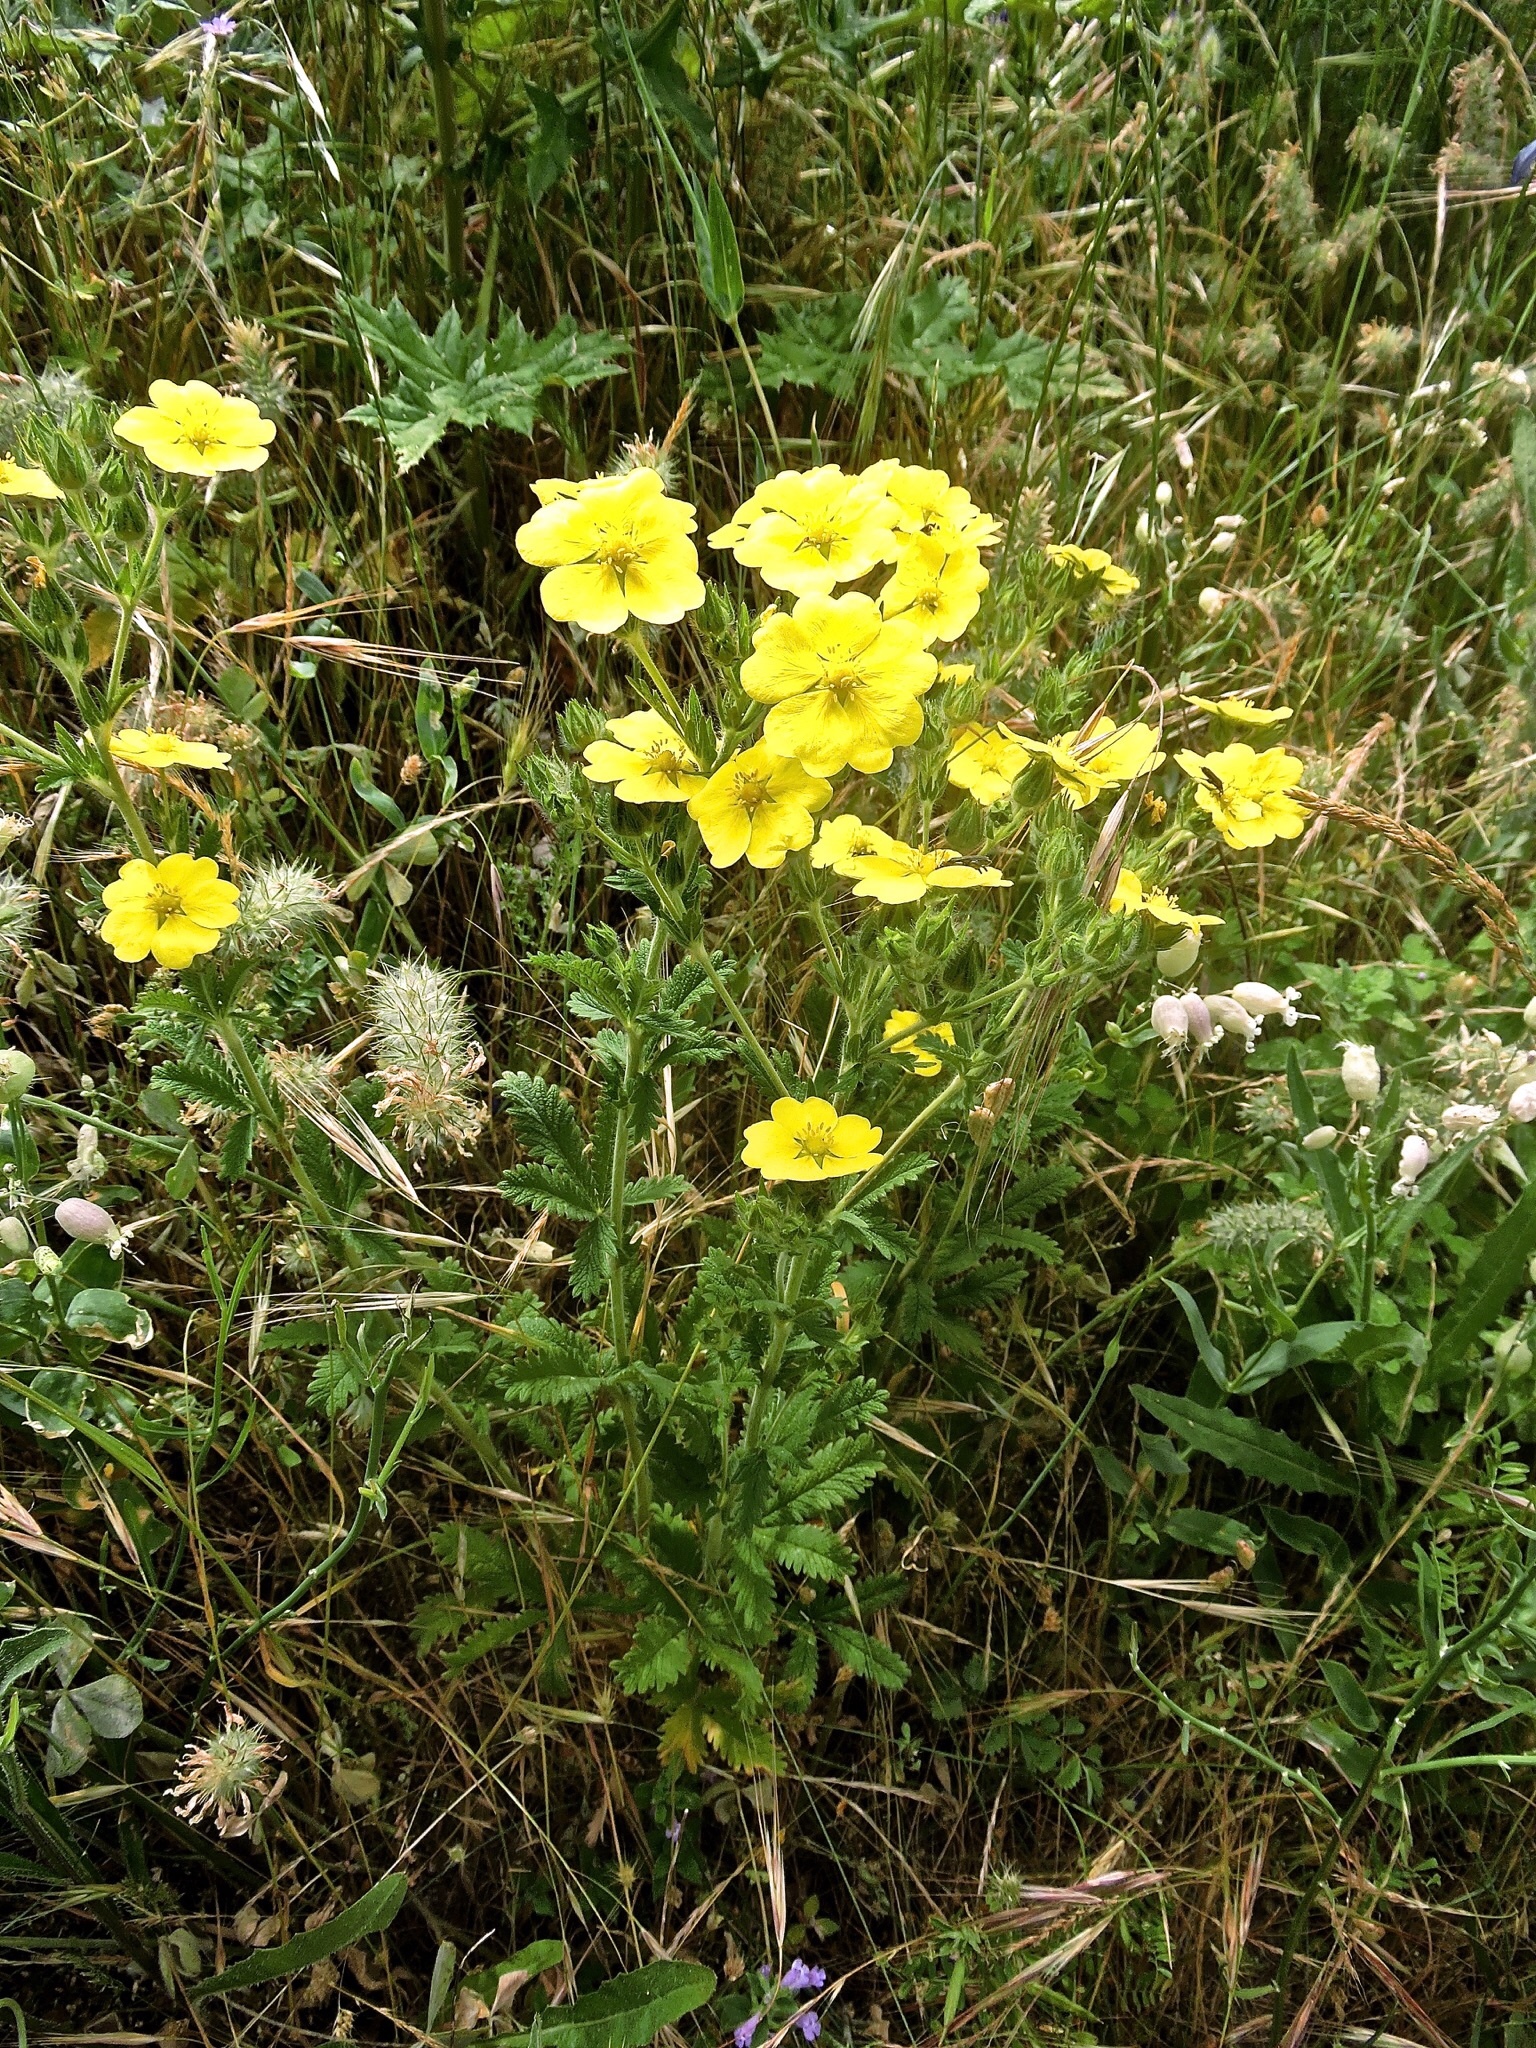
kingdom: Plantae
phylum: Tracheophyta
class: Magnoliopsida
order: Rosales
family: Rosaceae
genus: Potentilla
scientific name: Potentilla recta
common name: Sulphur cinquefoil
